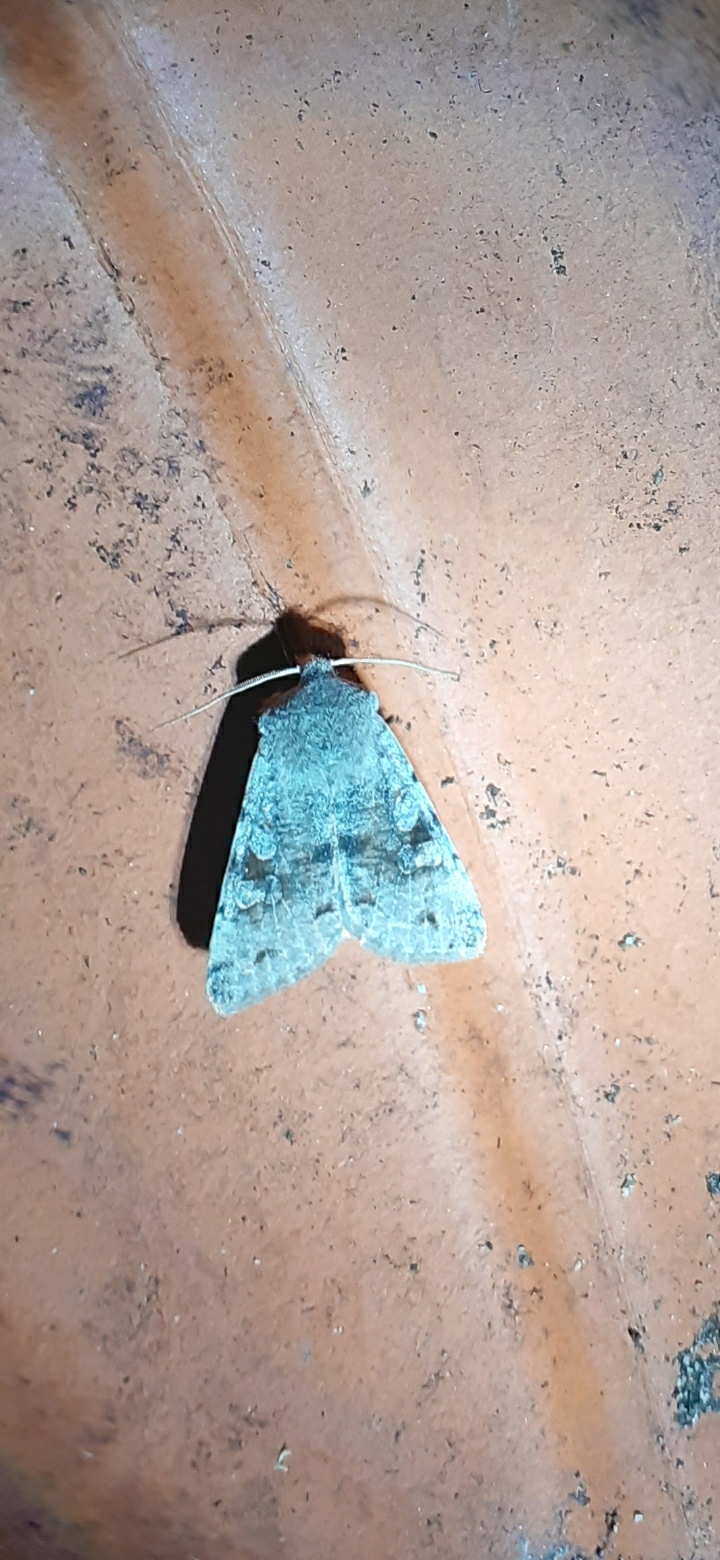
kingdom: Animalia
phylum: Arthropoda
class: Insecta
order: Lepidoptera
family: Noctuidae
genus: Orthosia
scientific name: Orthosia incerta
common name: Clouded drab
